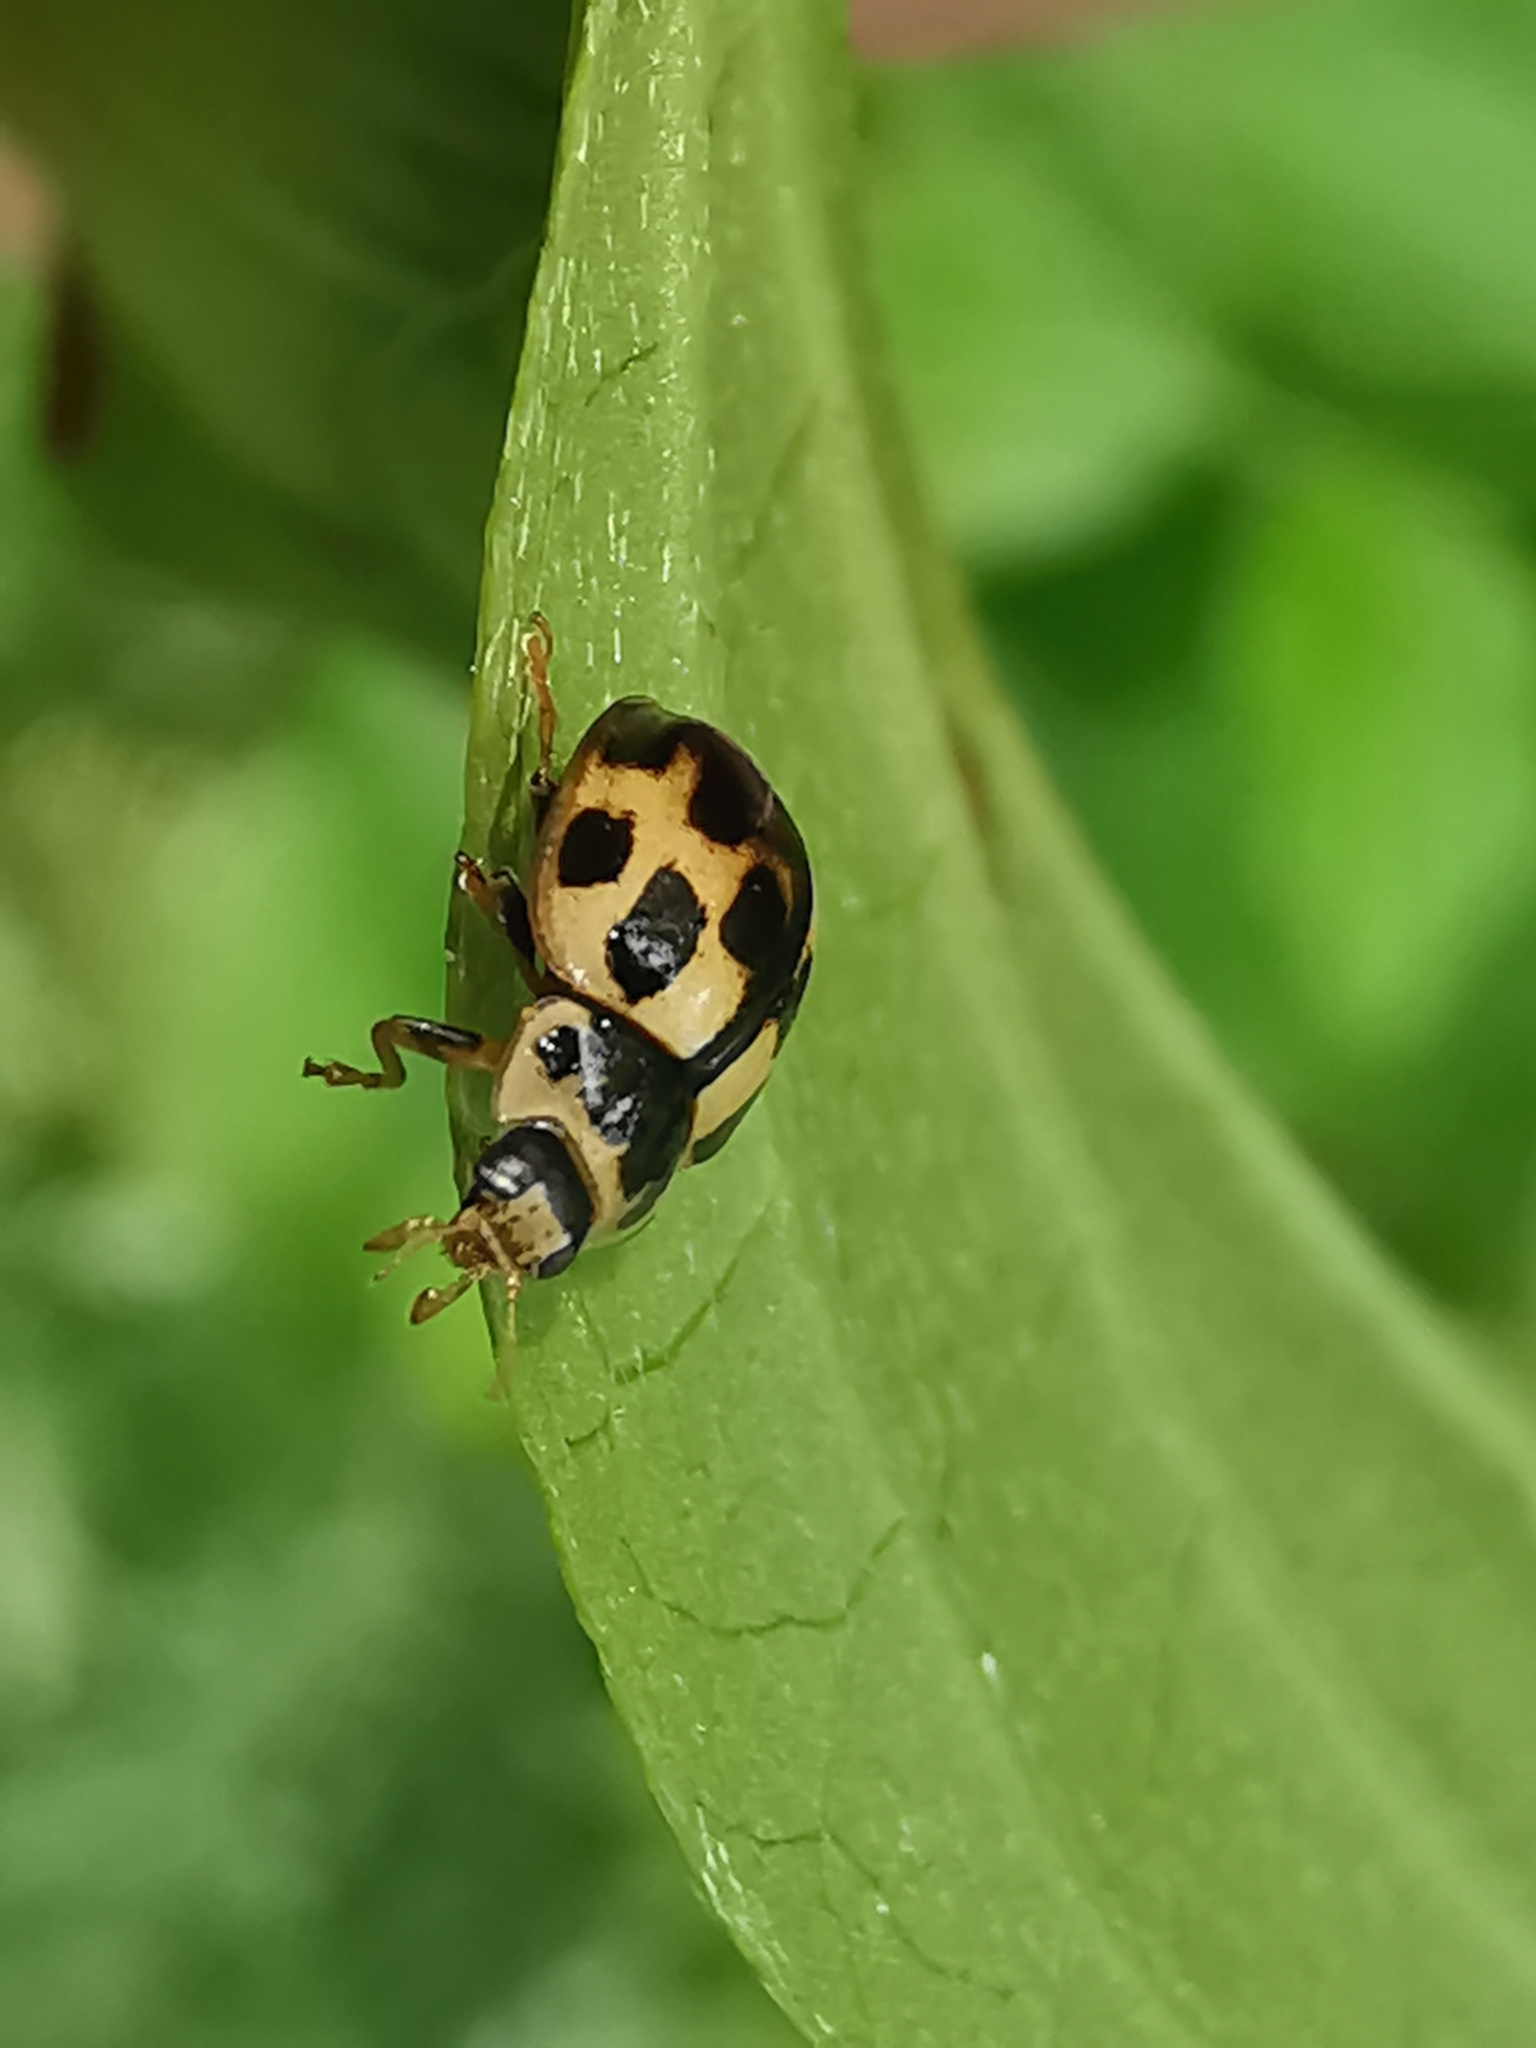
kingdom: Animalia
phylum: Arthropoda
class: Insecta
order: Coleoptera
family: Coccinellidae
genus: Propylaea
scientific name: Propylaea quatuordecimpunctata
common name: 14-spotted ladybird beetle
